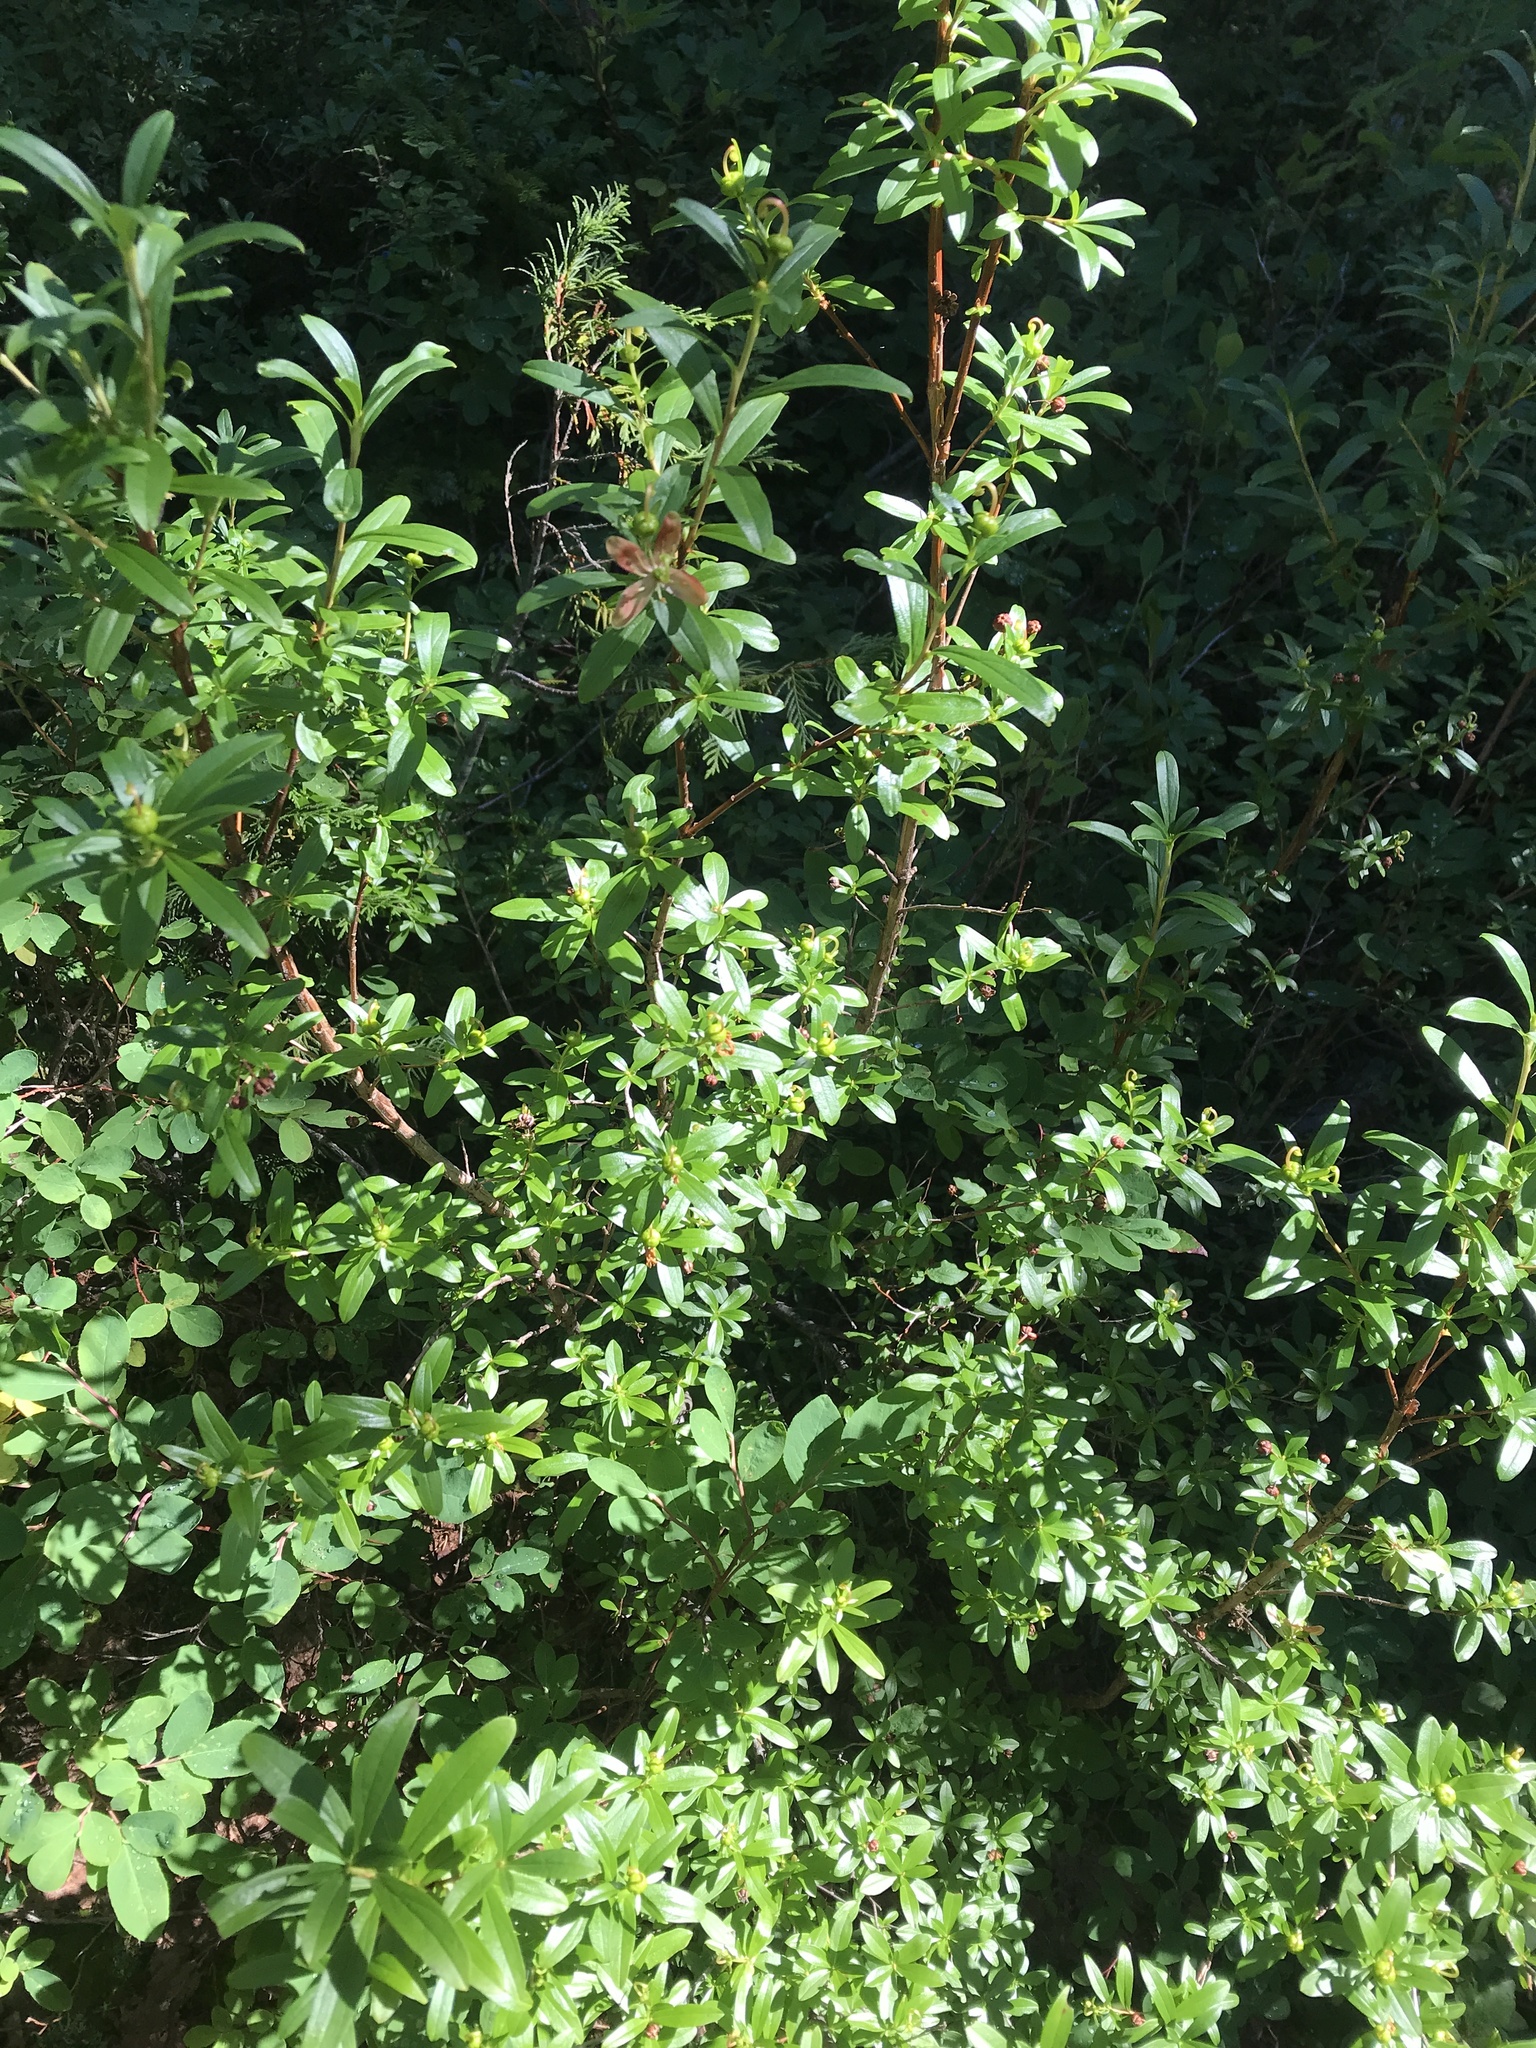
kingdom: Plantae
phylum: Tracheophyta
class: Magnoliopsida
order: Ericales
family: Ericaceae
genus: Elliottia
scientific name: Elliottia pyroliflora
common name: Copperbush
